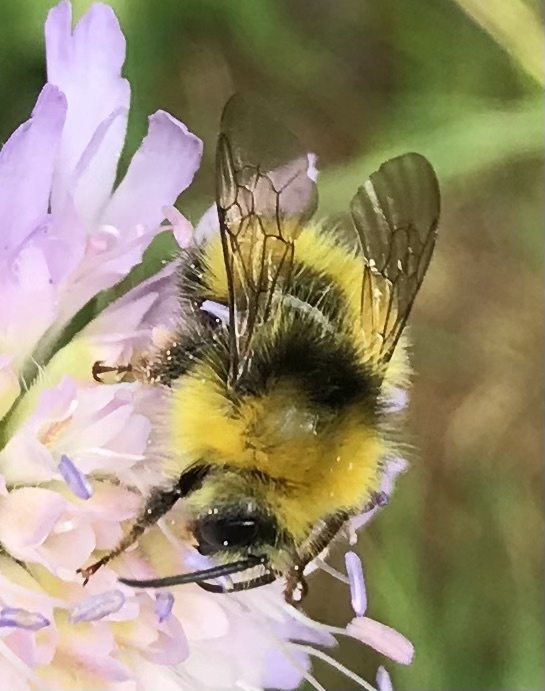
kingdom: Animalia
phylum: Arthropoda
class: Insecta
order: Hymenoptera
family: Apidae
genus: Bombus
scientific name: Bombus pratorum
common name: Early humble-bee
